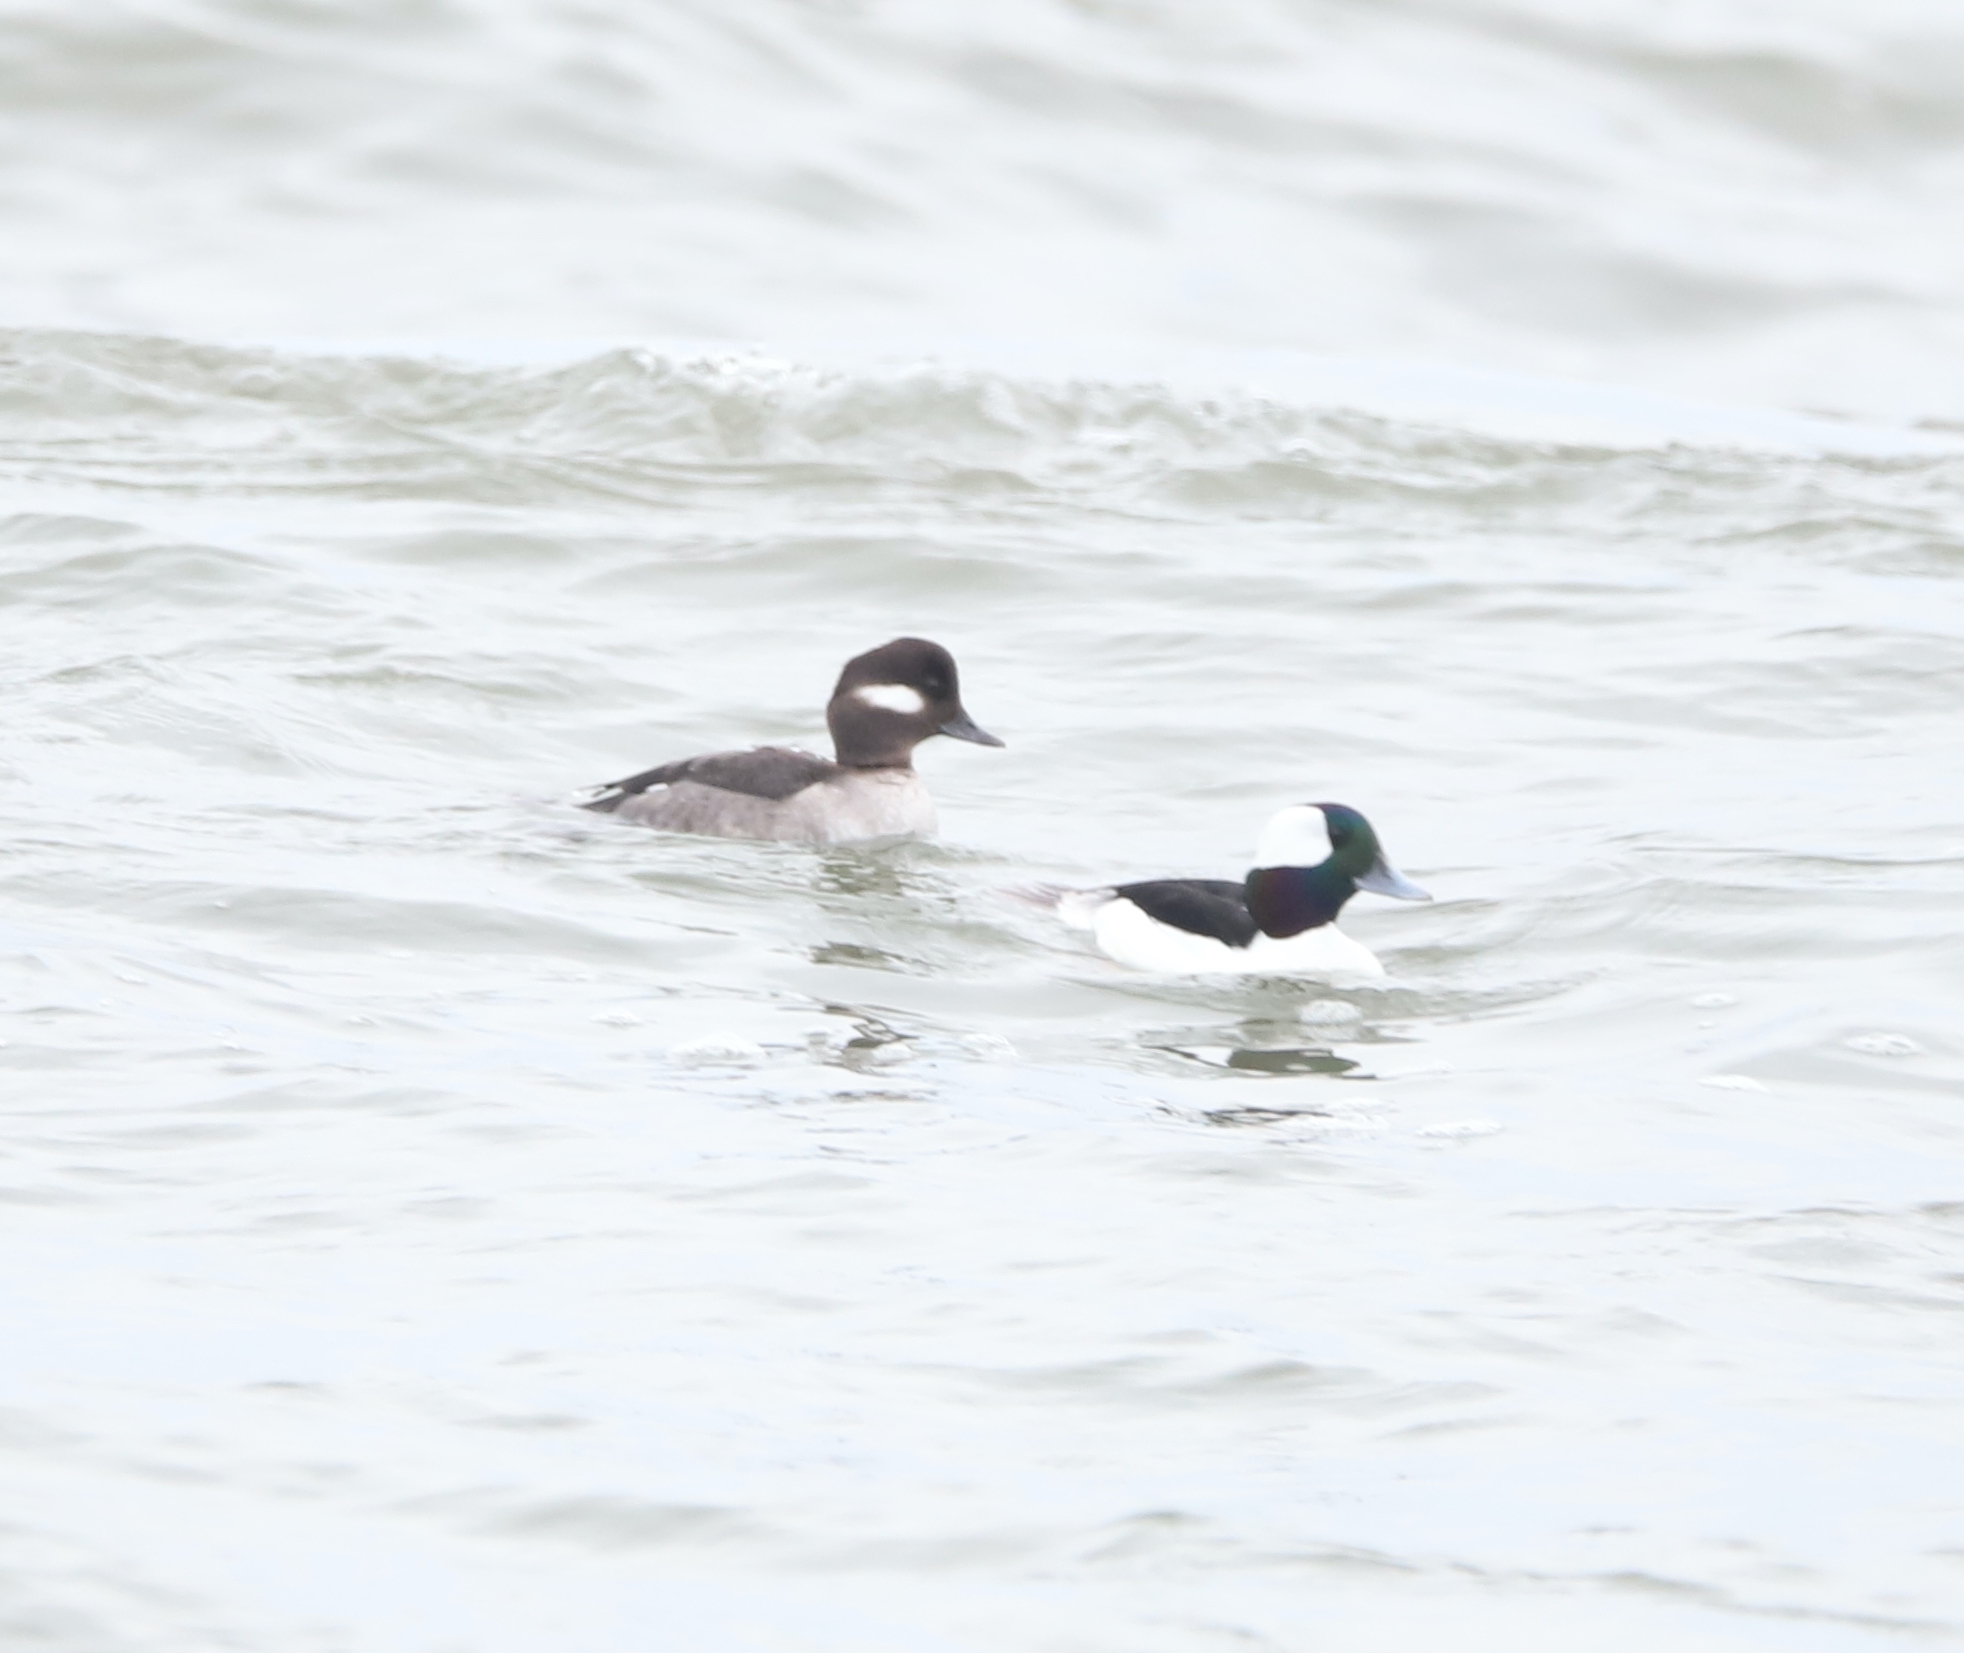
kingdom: Animalia
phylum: Chordata
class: Aves
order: Anseriformes
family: Anatidae
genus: Bucephala
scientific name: Bucephala albeola
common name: Bufflehead
